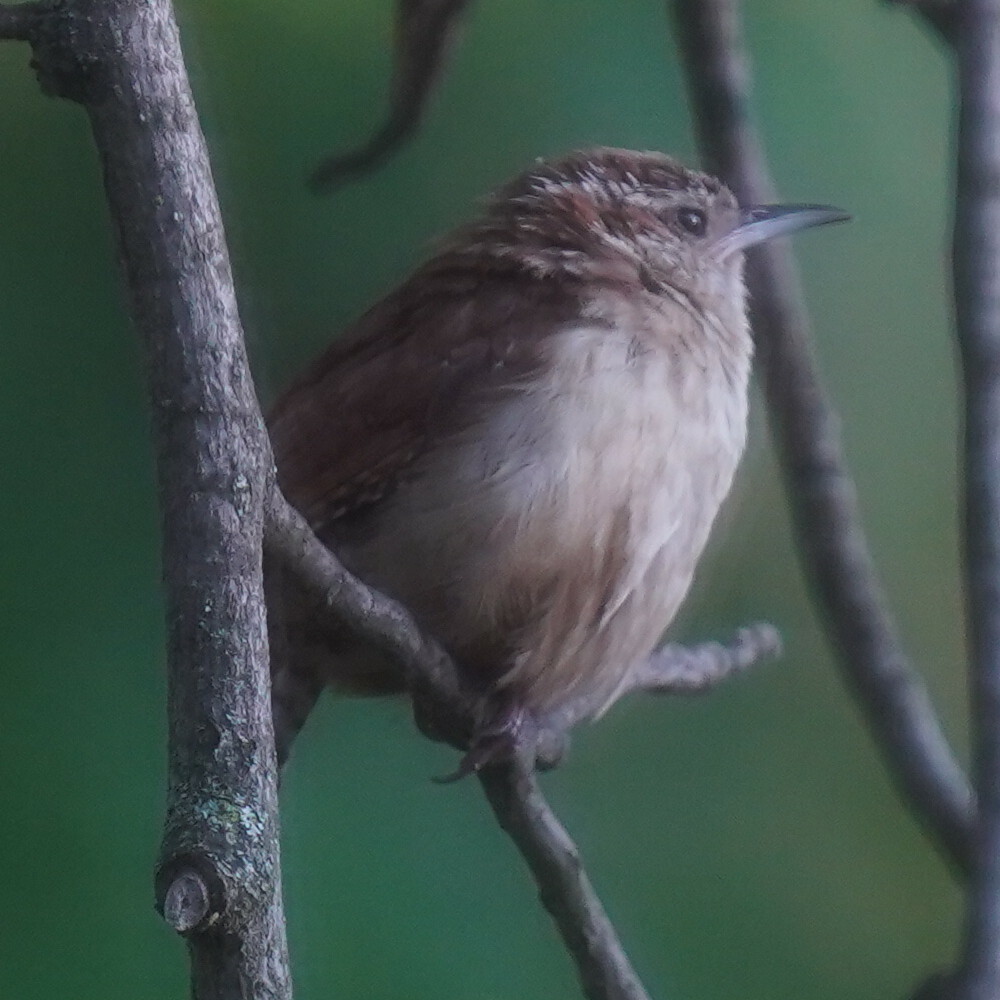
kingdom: Animalia
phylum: Chordata
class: Aves
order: Passeriformes
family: Troglodytidae
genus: Thryothorus
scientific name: Thryothorus ludovicianus
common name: Carolina wren
